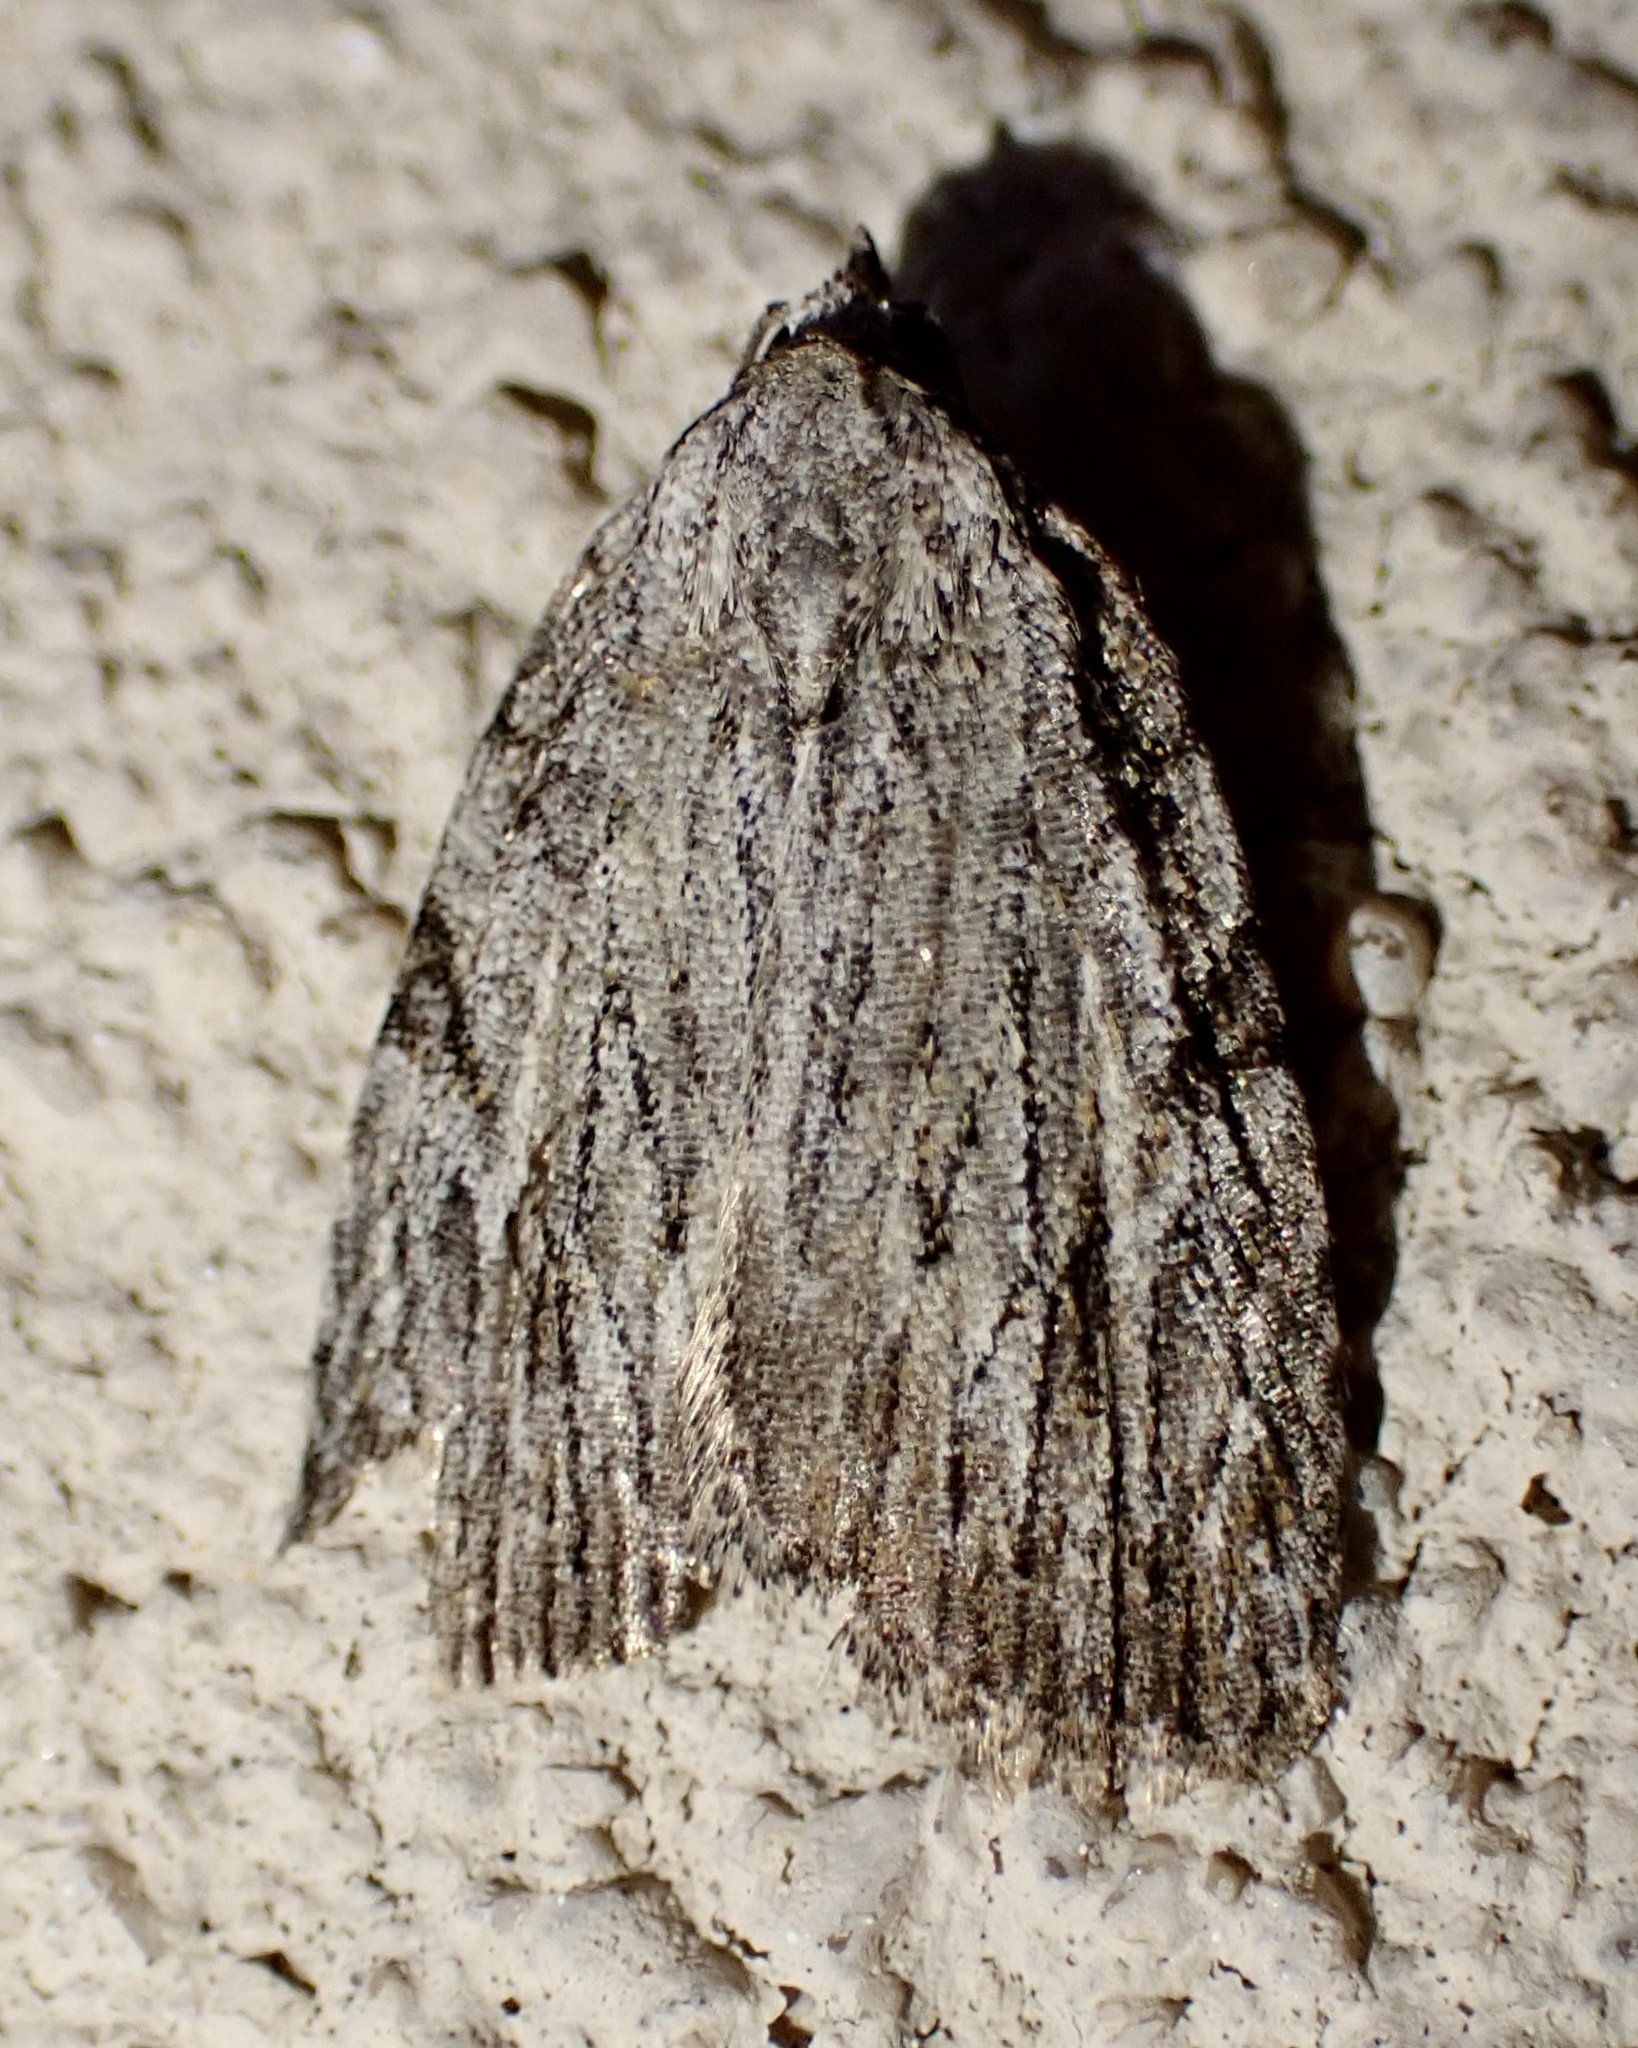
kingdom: Animalia
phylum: Arthropoda
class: Insecta
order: Lepidoptera
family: Noctuidae
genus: Balsa
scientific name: Balsa tristrigella
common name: Three-lined balsa moth
